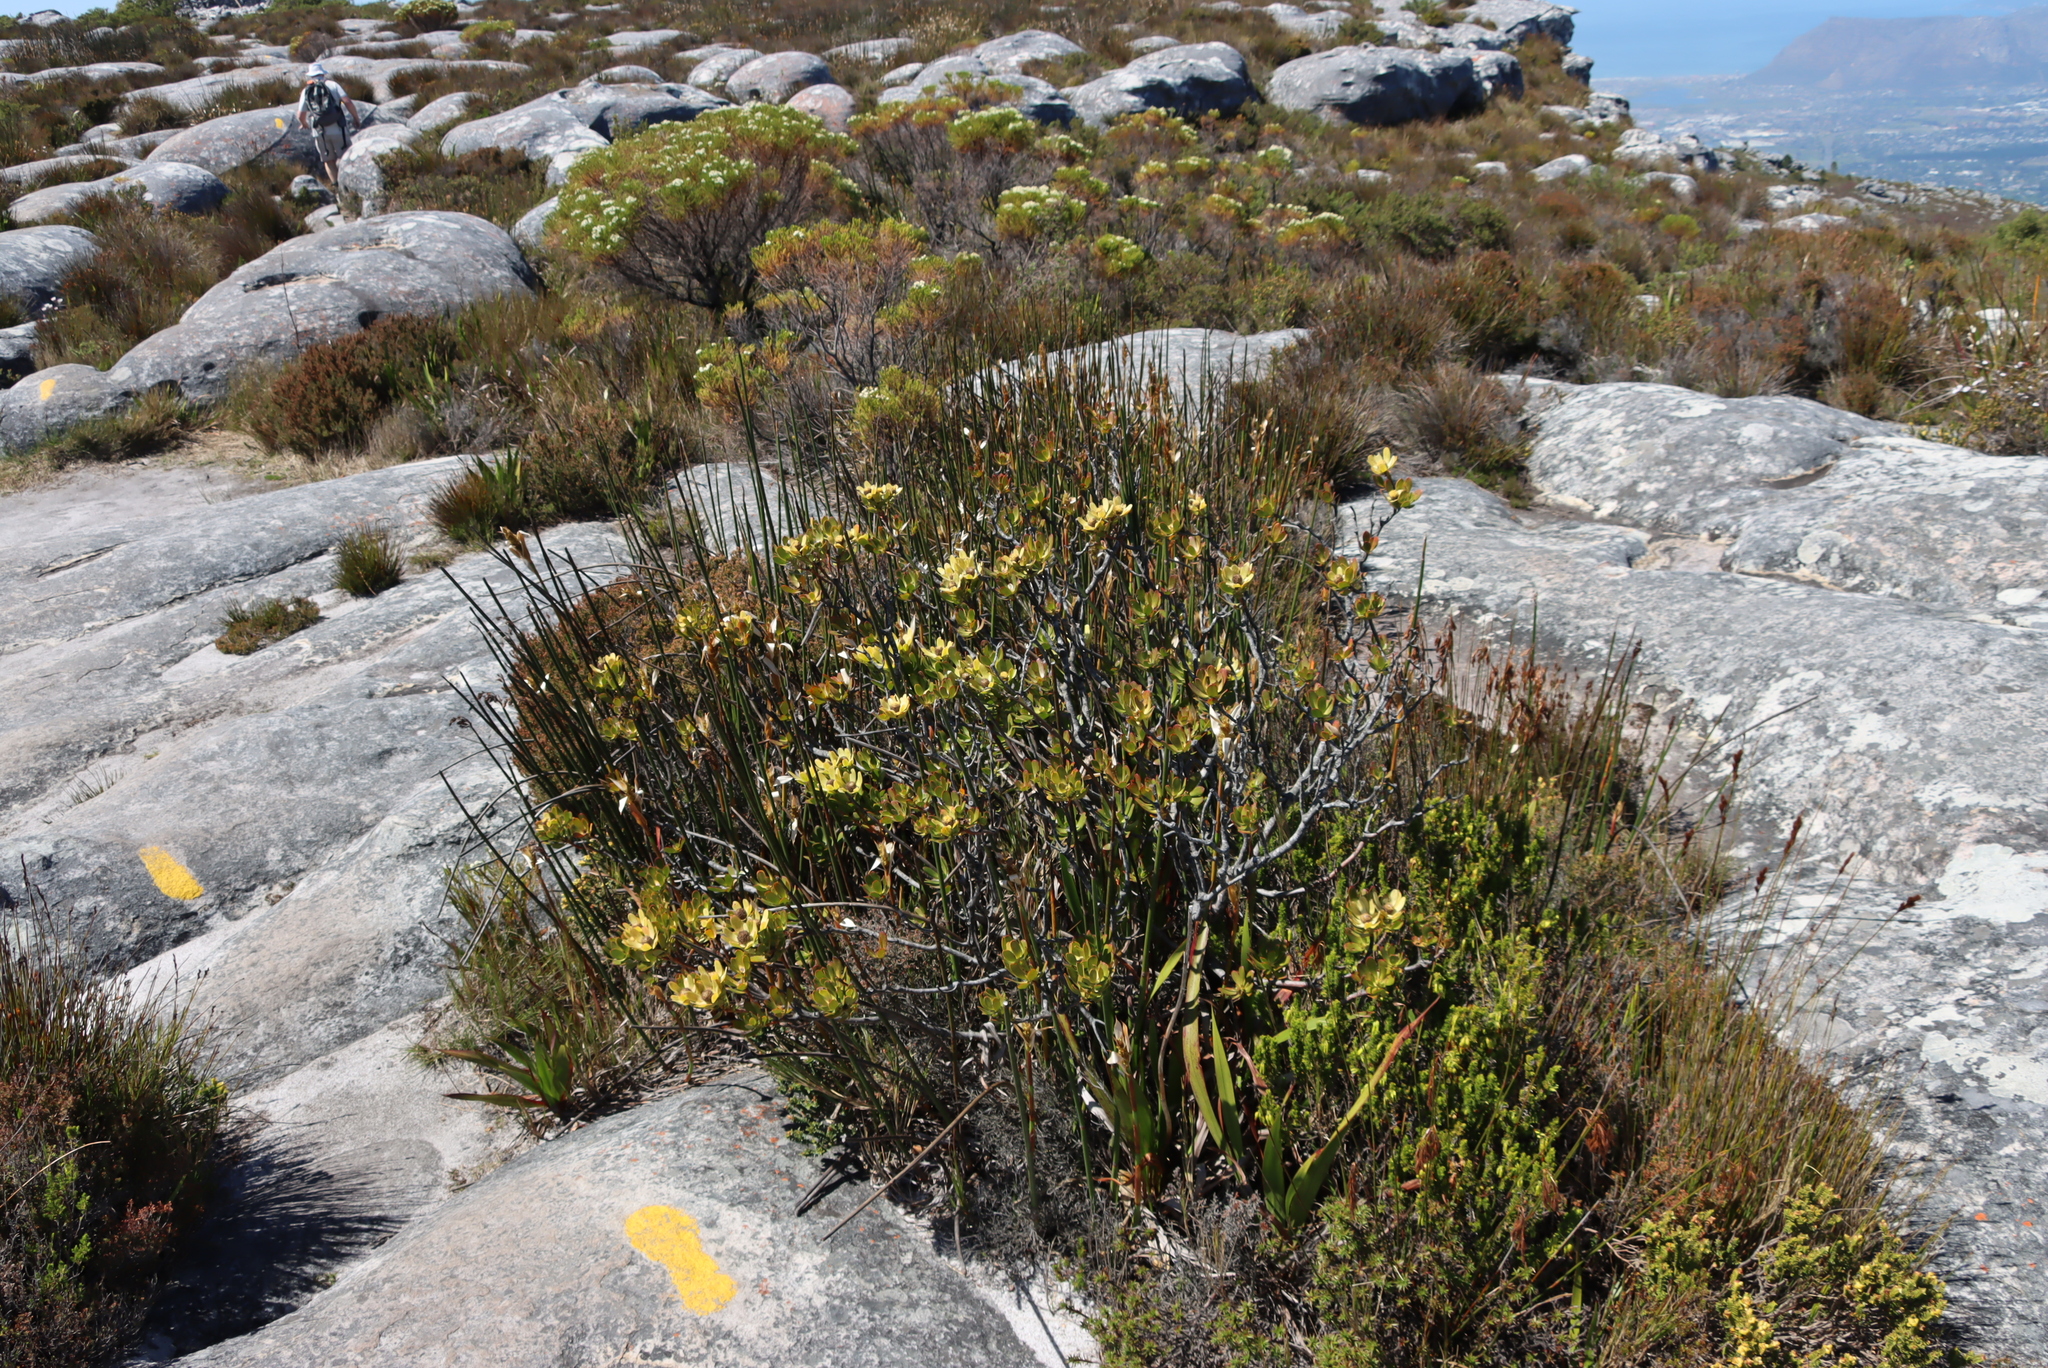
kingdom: Plantae
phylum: Tracheophyta
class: Magnoliopsida
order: Proteales
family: Proteaceae
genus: Leucadendron
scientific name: Leucadendron strobilinum
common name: Mountain rose
